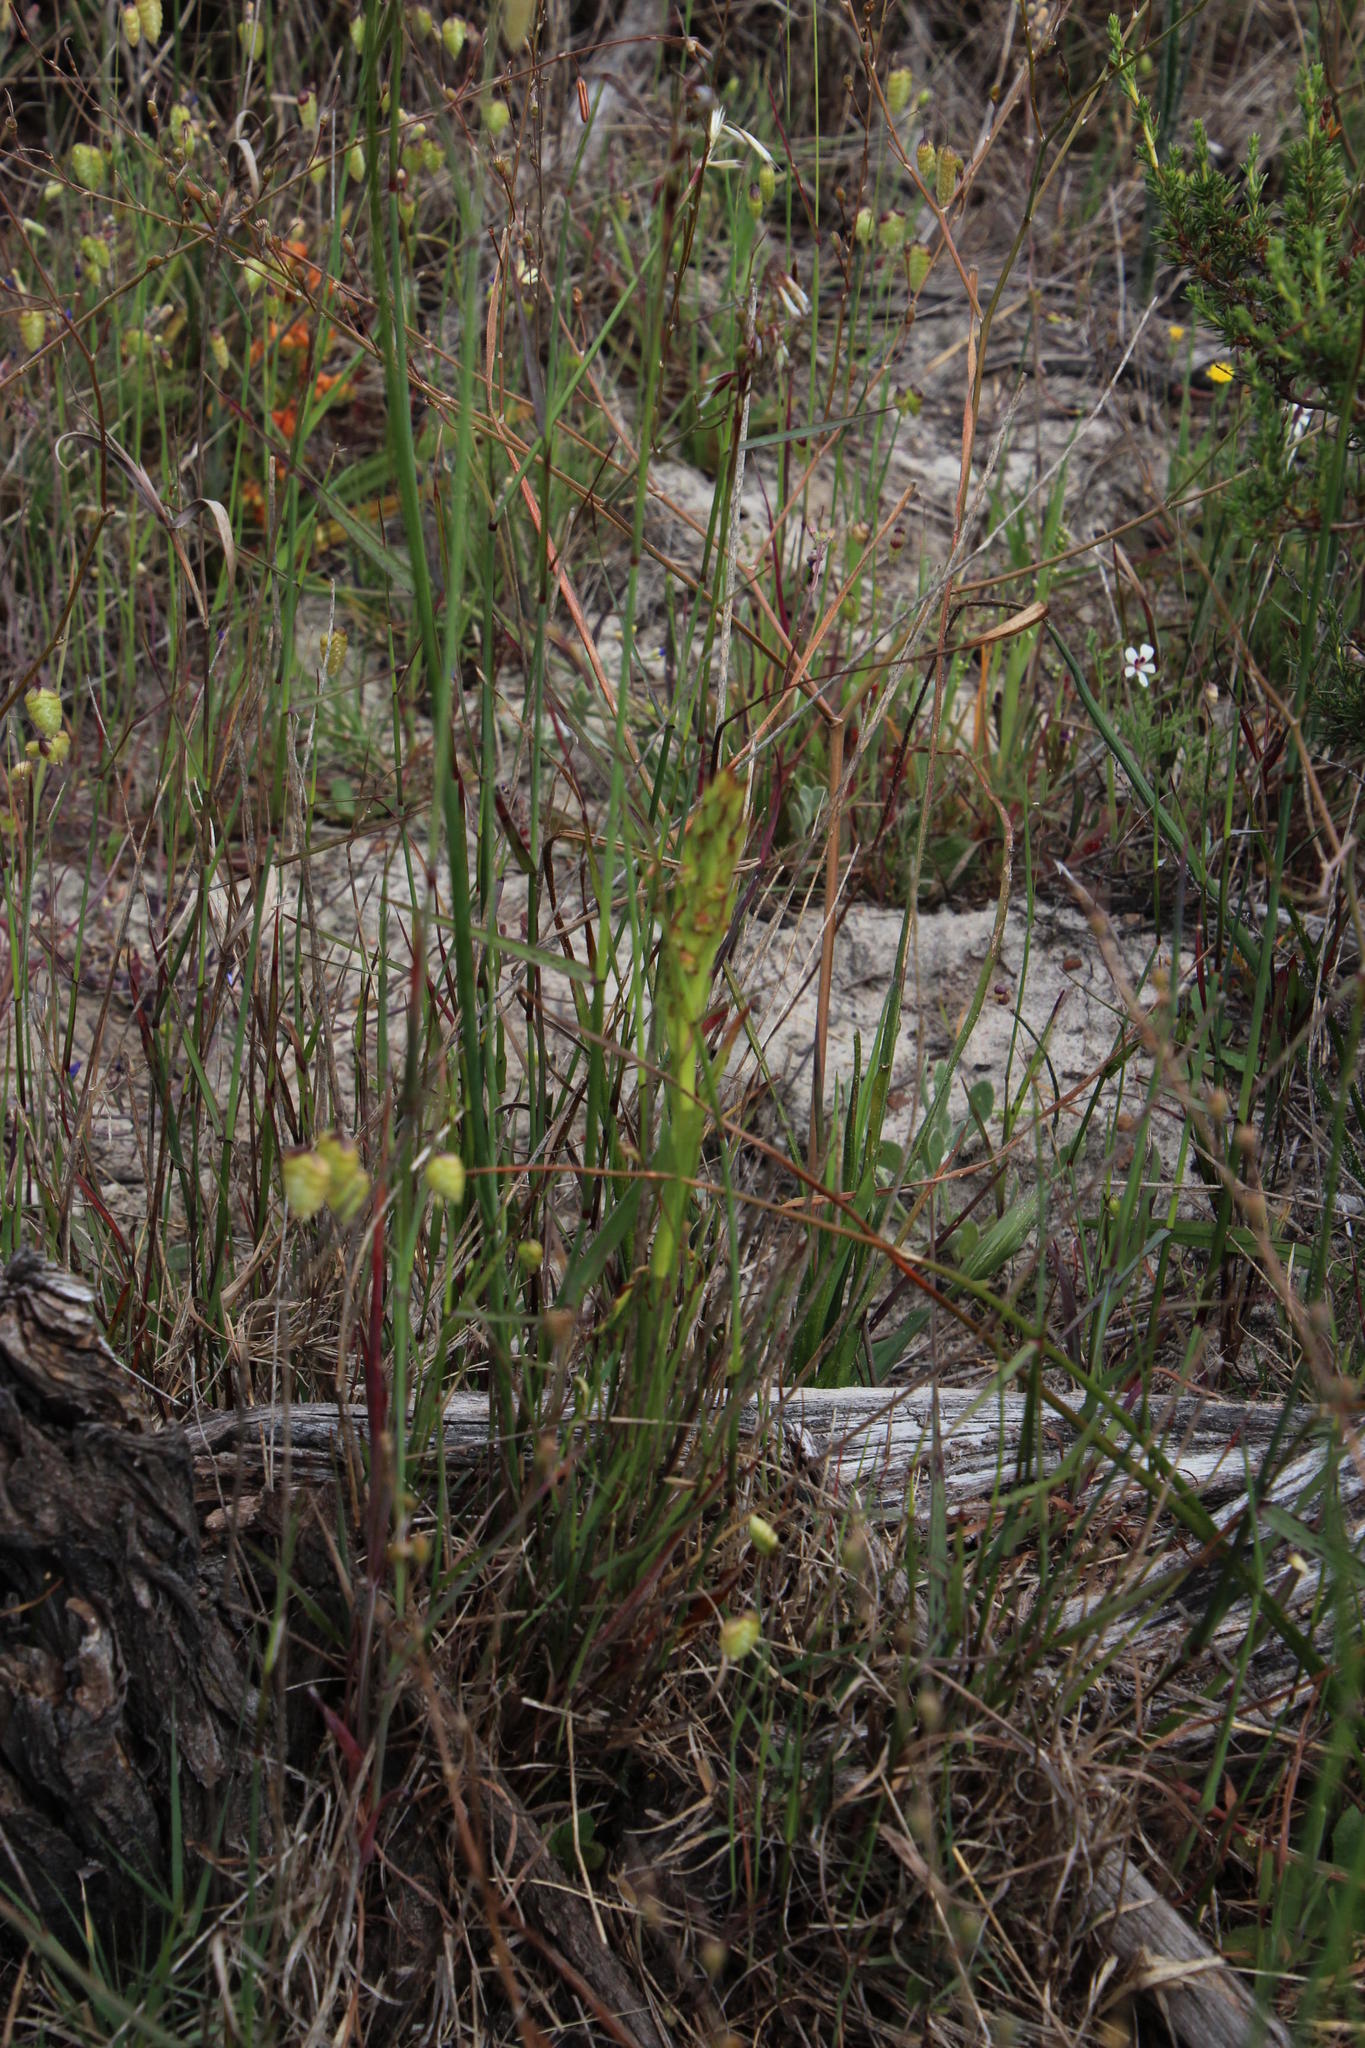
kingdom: Plantae
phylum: Tracheophyta
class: Liliopsida
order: Asparagales
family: Orchidaceae
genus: Disa
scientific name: Disa bracteata
